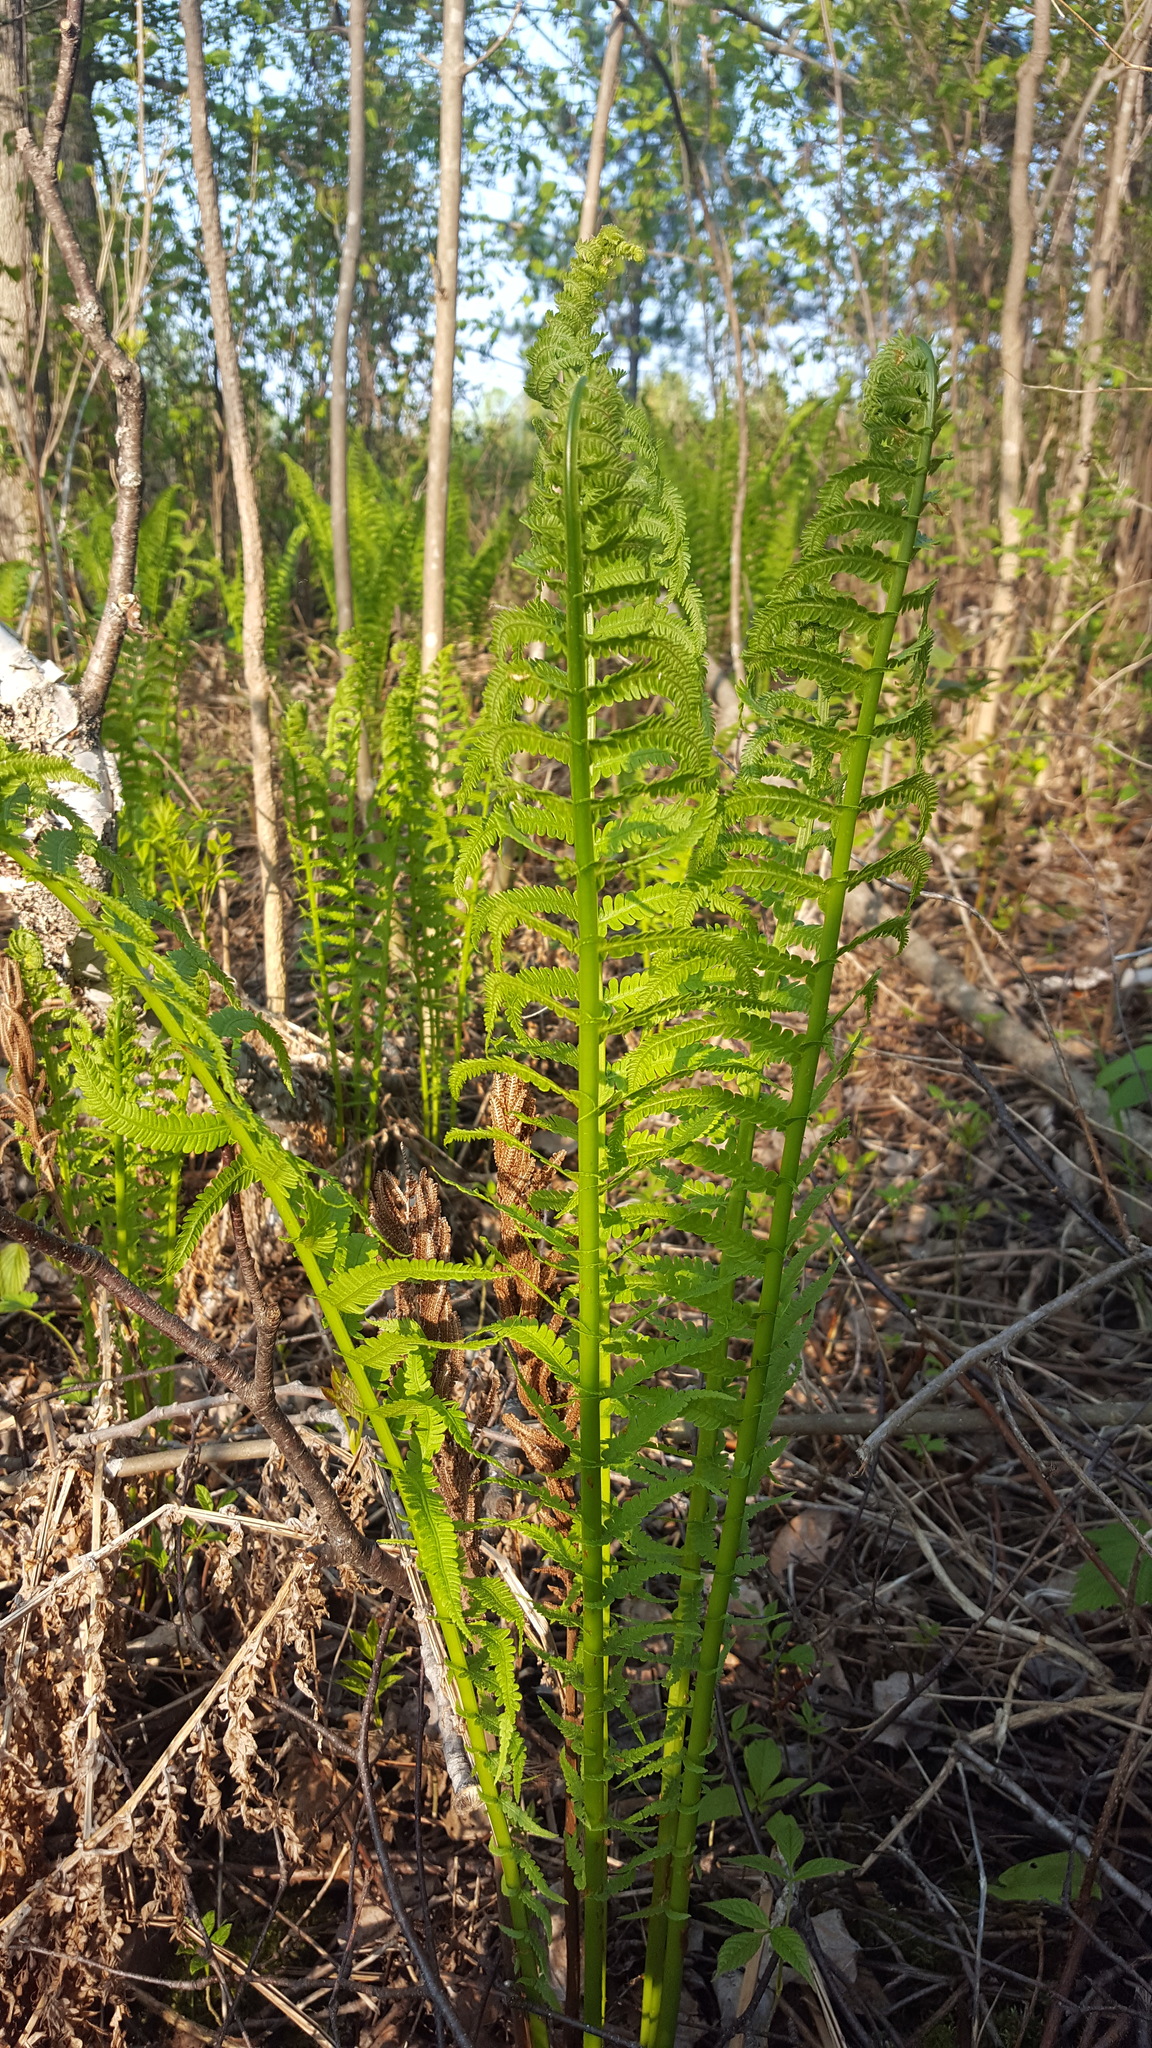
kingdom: Plantae
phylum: Tracheophyta
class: Polypodiopsida
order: Polypodiales
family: Onocleaceae
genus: Matteuccia
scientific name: Matteuccia struthiopteris
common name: Ostrich fern
